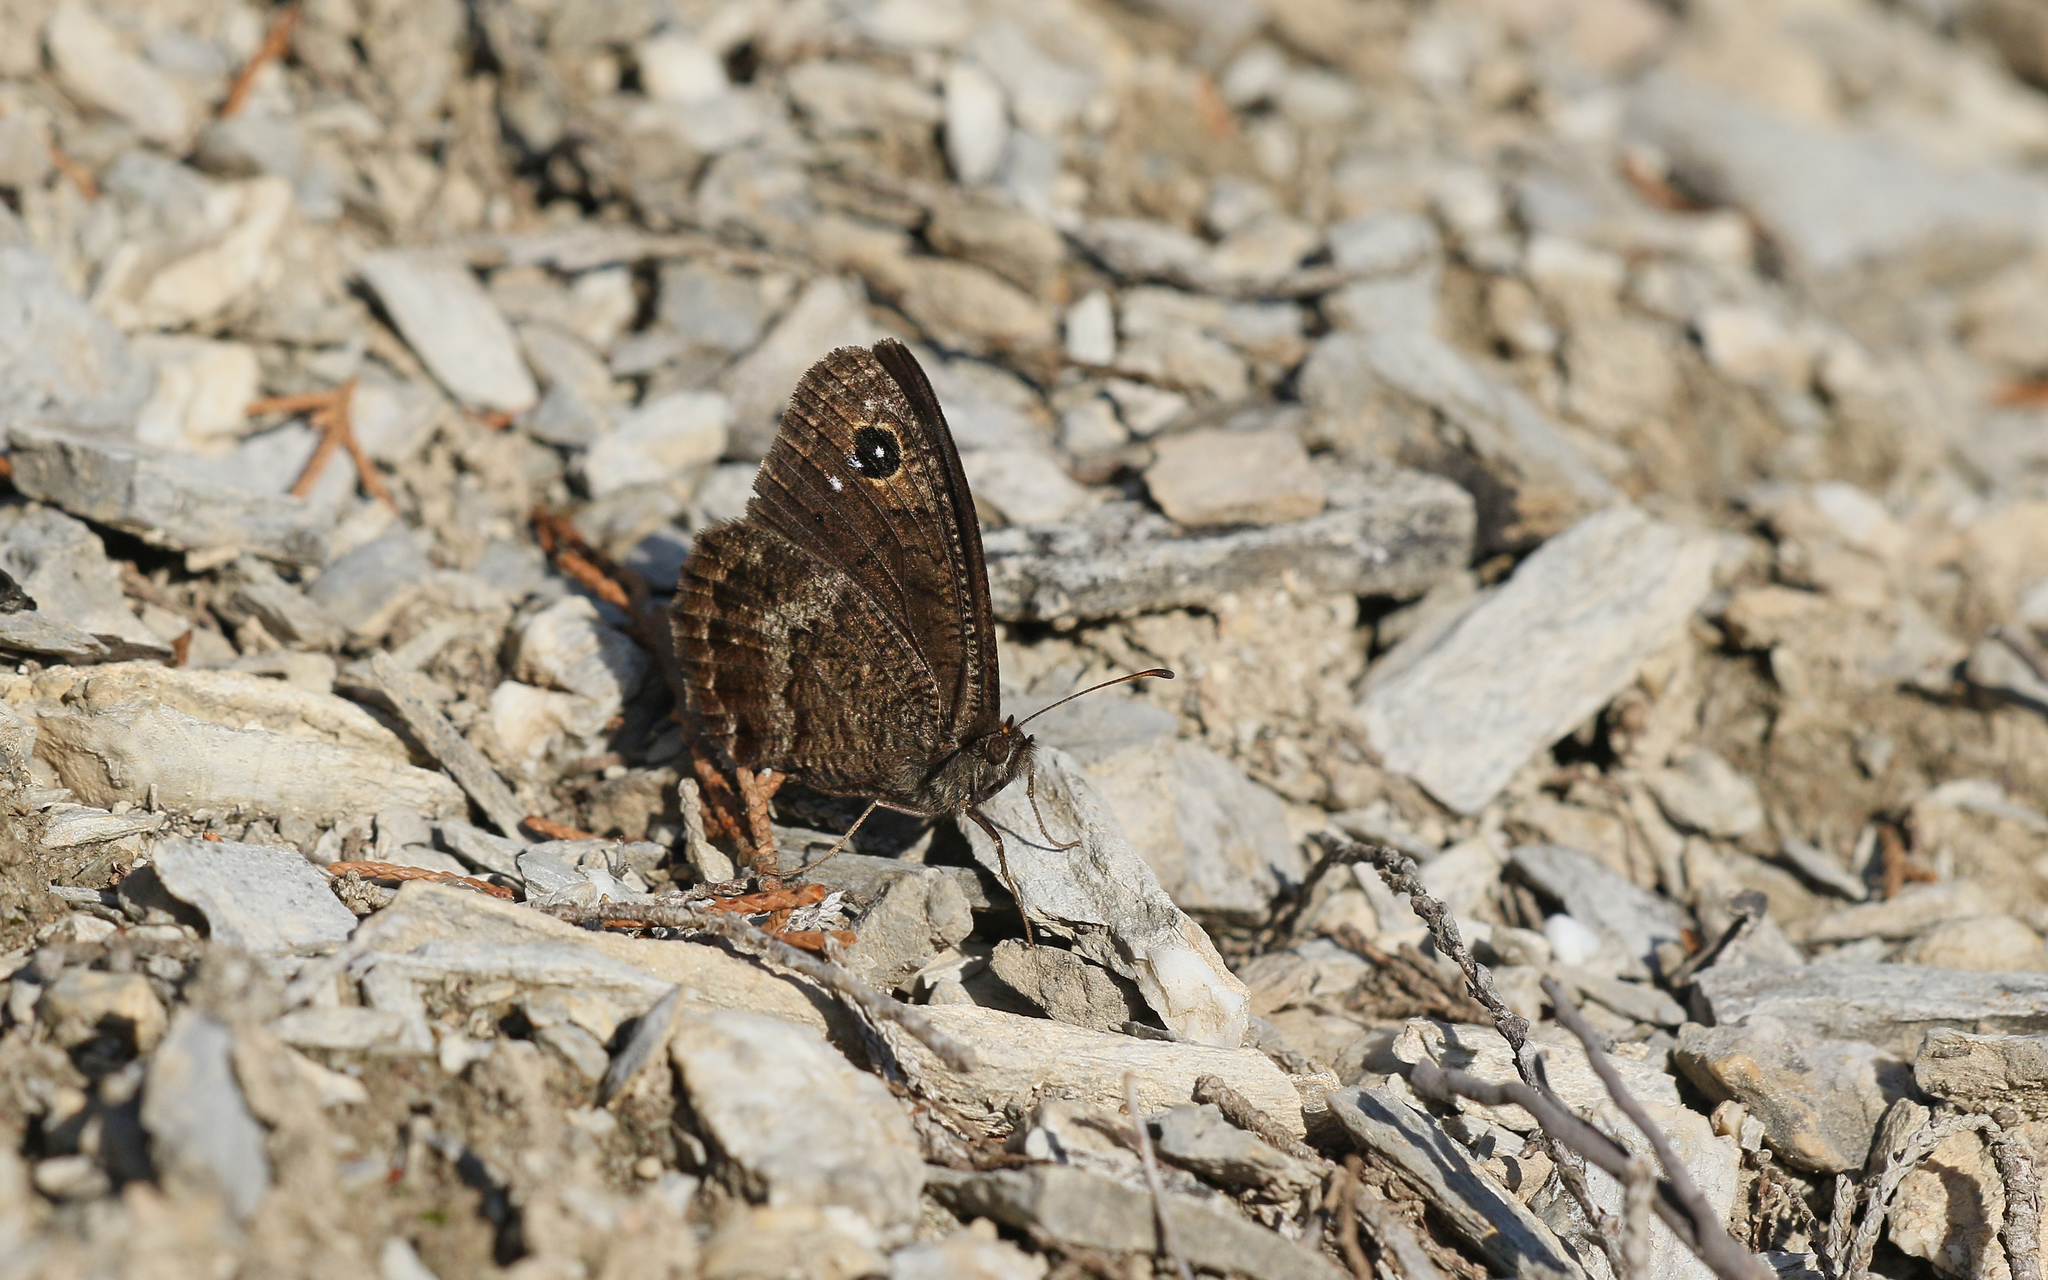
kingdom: Animalia
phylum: Arthropoda
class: Insecta
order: Lepidoptera
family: Nymphalidae
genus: Satyrus
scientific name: Satyrus actaea
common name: Black satyr
